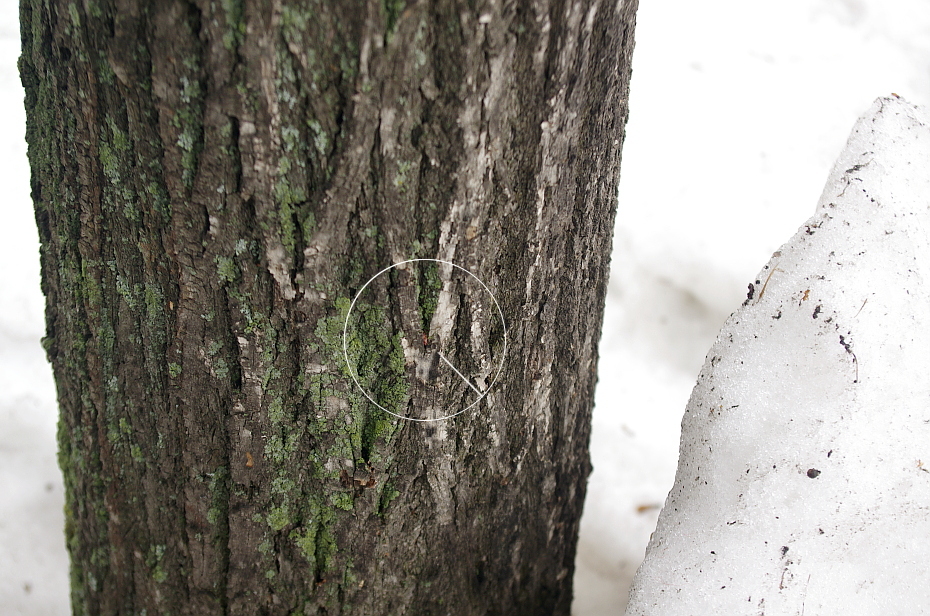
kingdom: Animalia
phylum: Arthropoda
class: Insecta
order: Hemiptera
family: Pyrrhocoridae
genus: Pyrrhocoris
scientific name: Pyrrhocoris apterus
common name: Firebug
